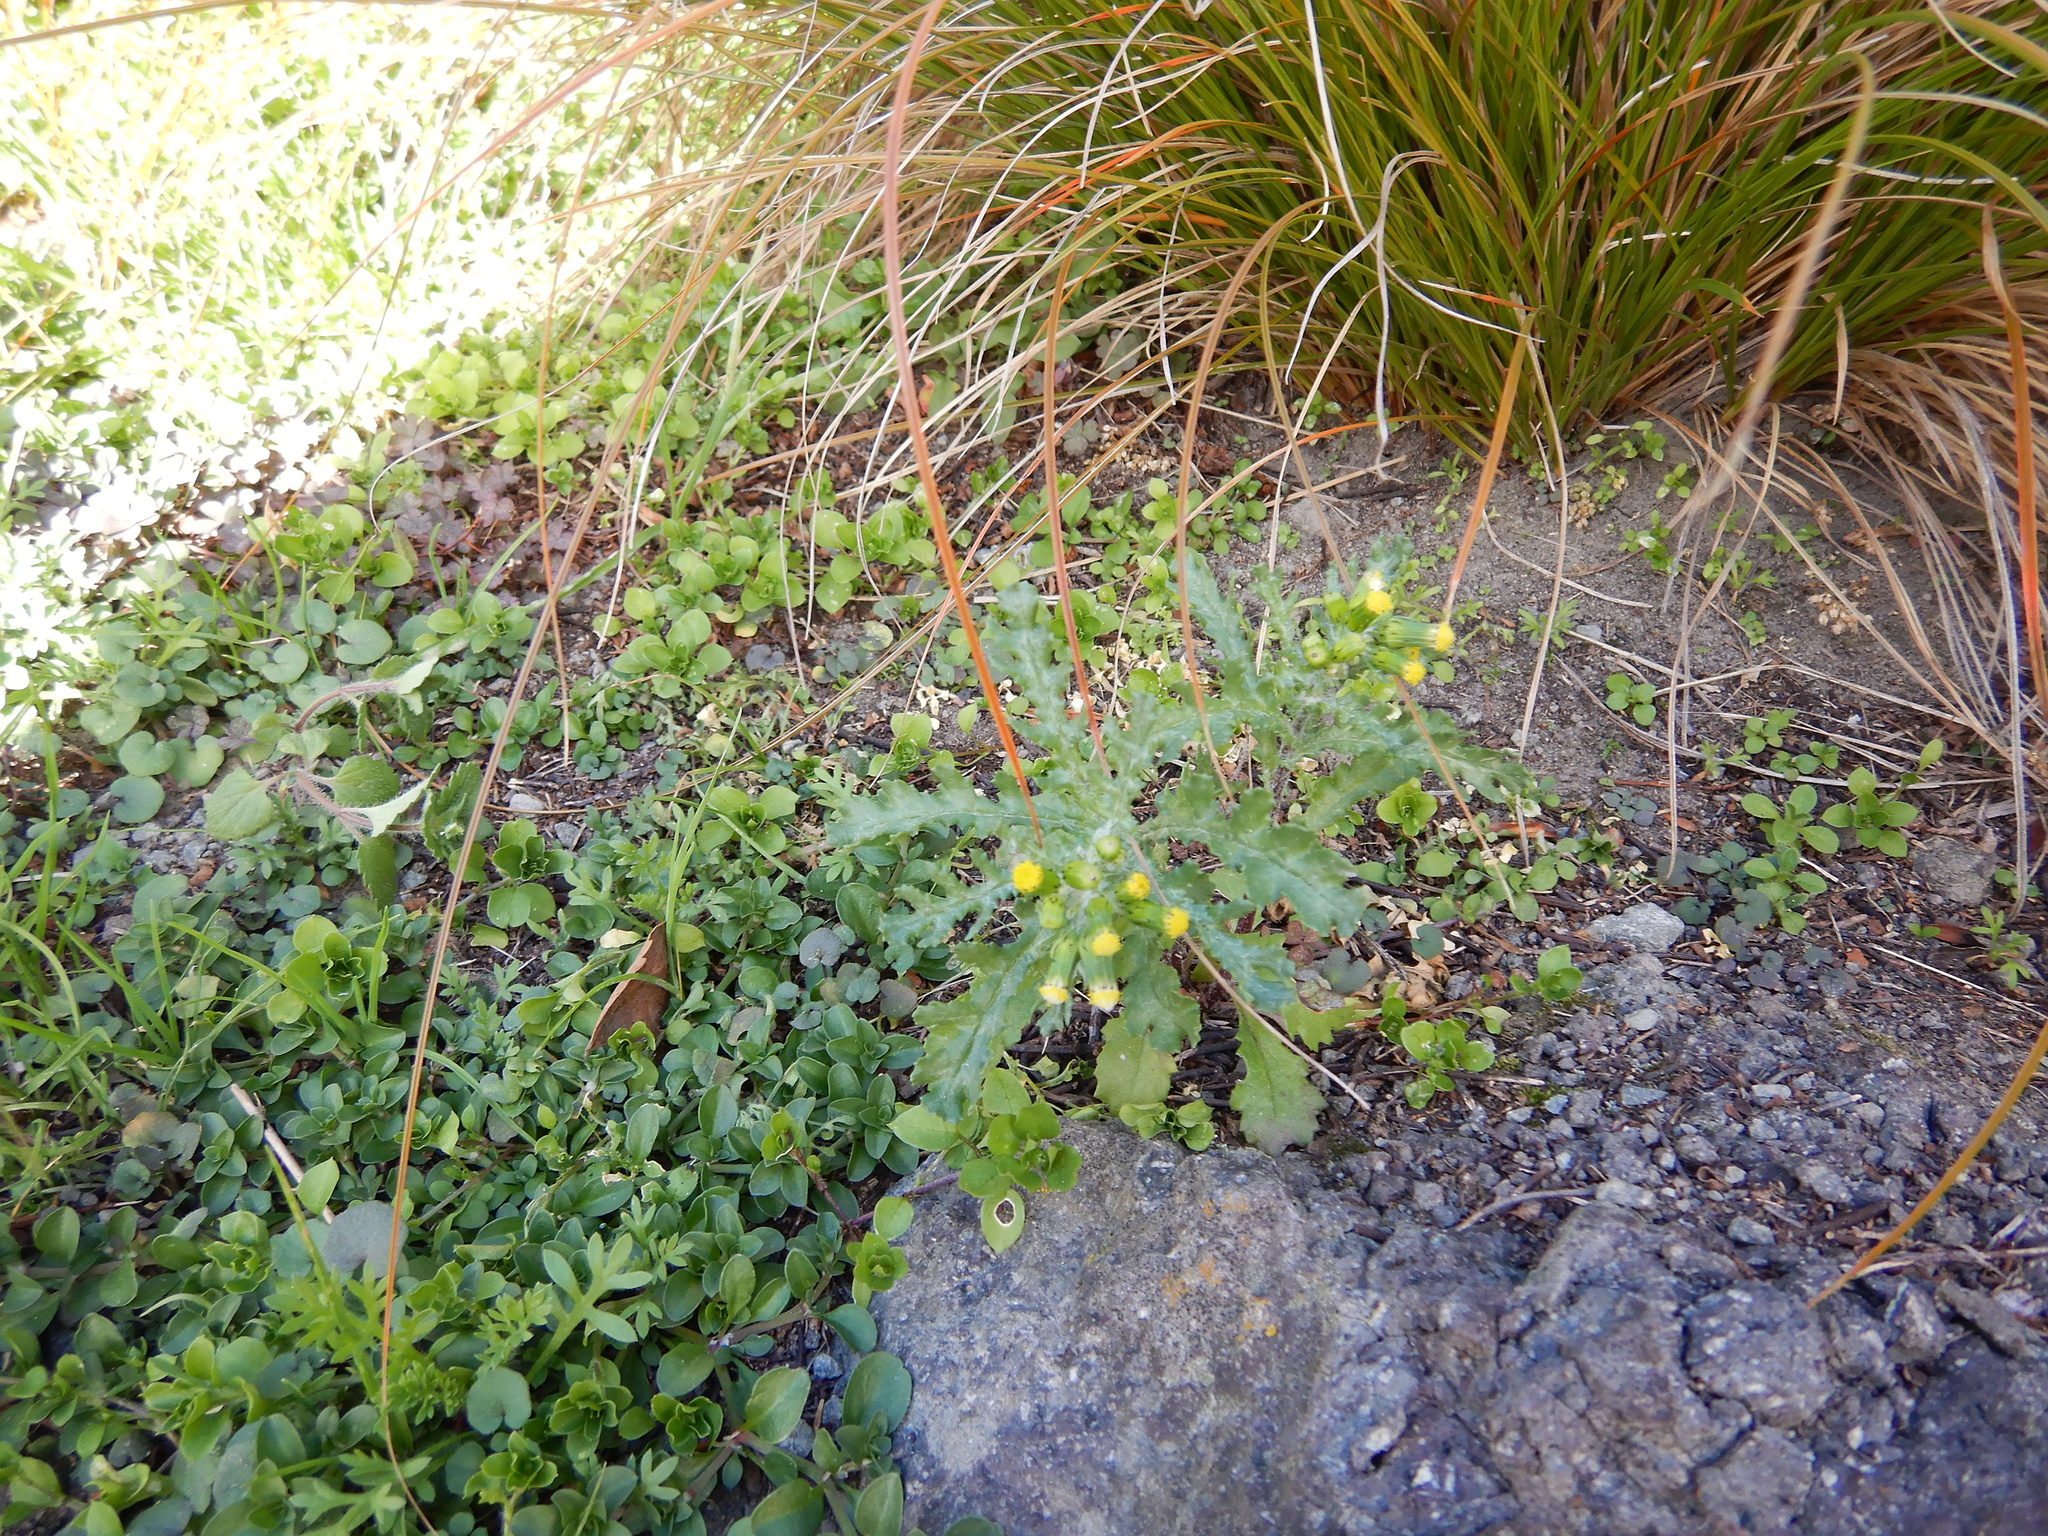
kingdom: Plantae
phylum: Tracheophyta
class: Magnoliopsida
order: Asterales
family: Asteraceae
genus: Senecio
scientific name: Senecio vulgaris
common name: Old-man-in-the-spring
